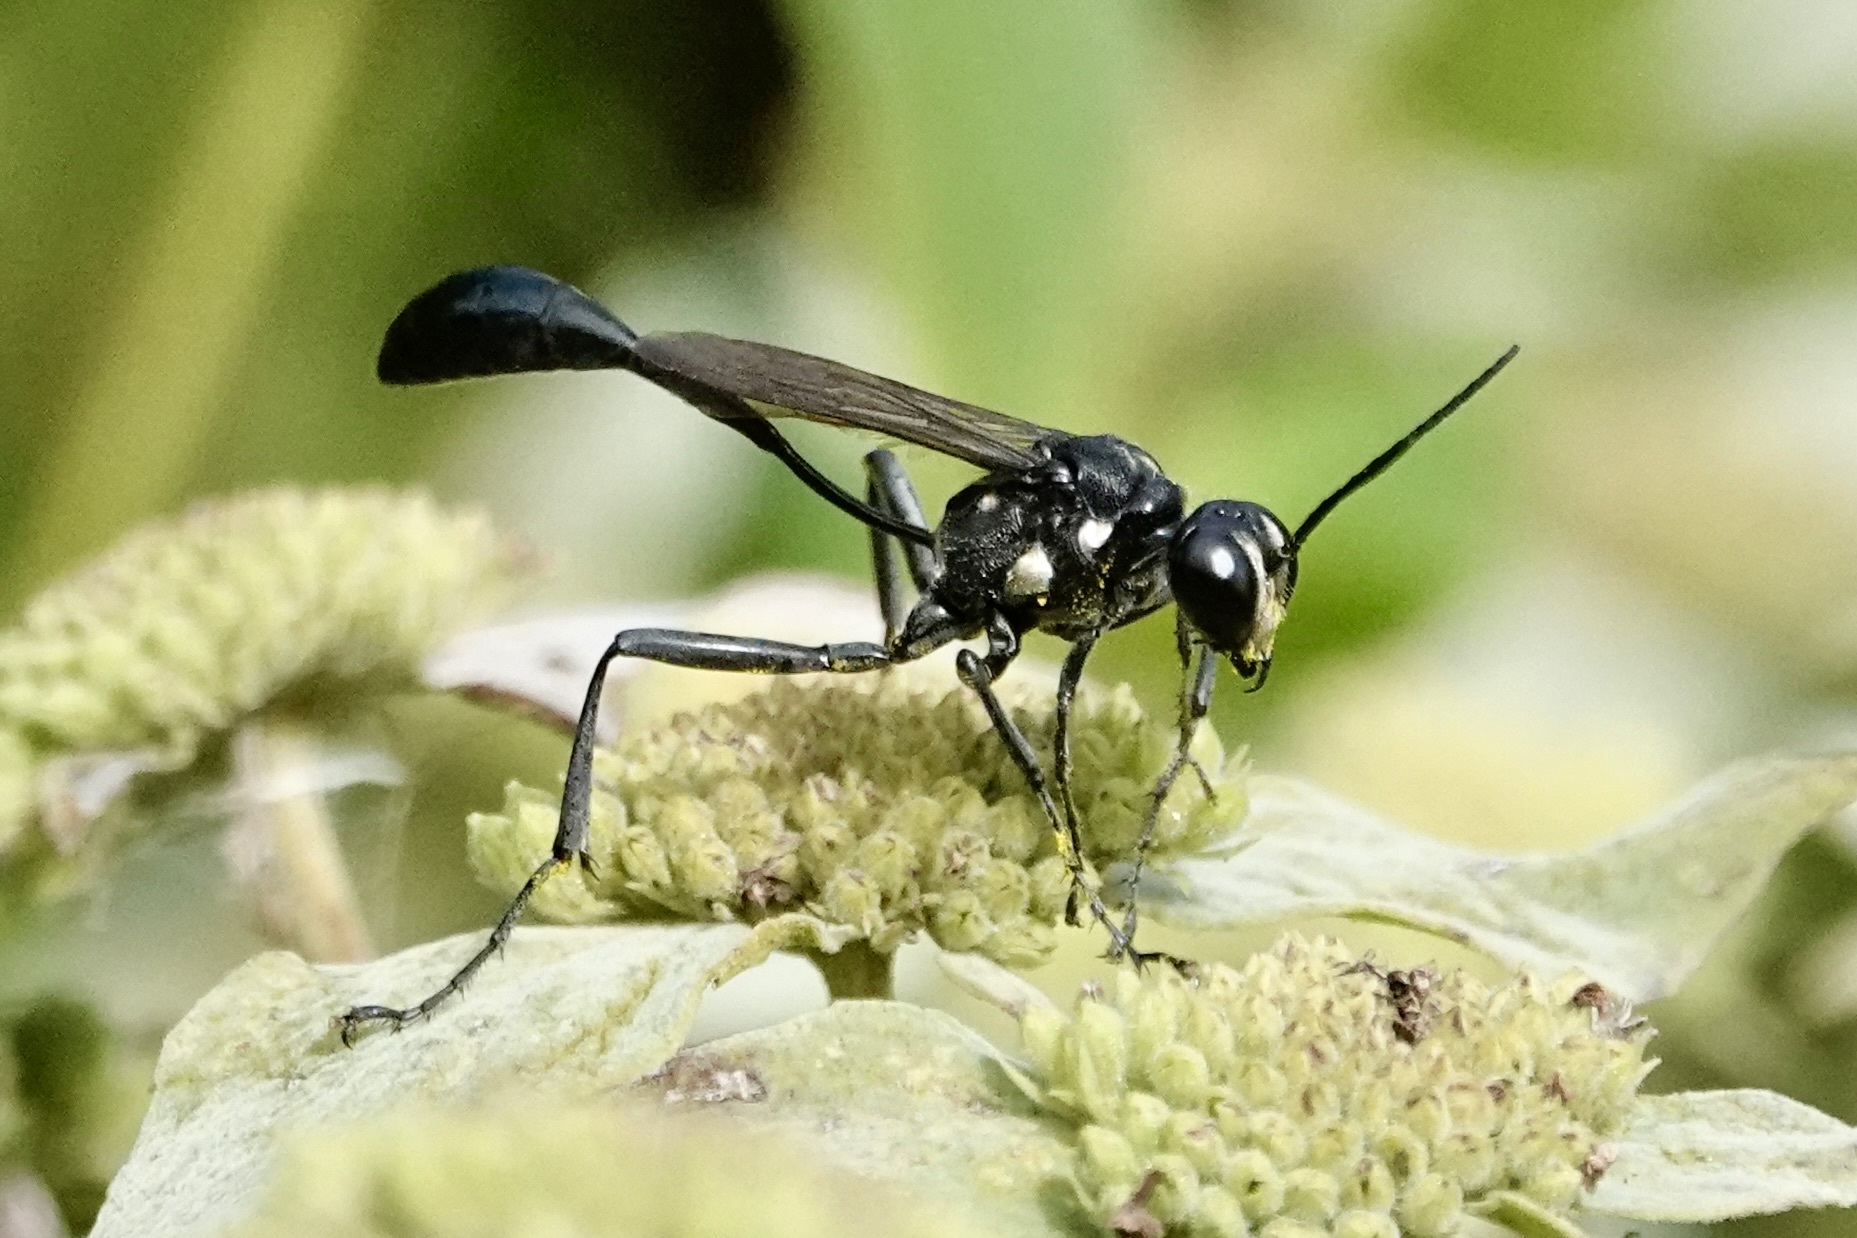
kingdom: Animalia
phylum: Arthropoda
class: Insecta
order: Hymenoptera
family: Sphecidae
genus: Eremnophila
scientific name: Eremnophila aureonotata
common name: Gold-marked thread-waisted wasp
